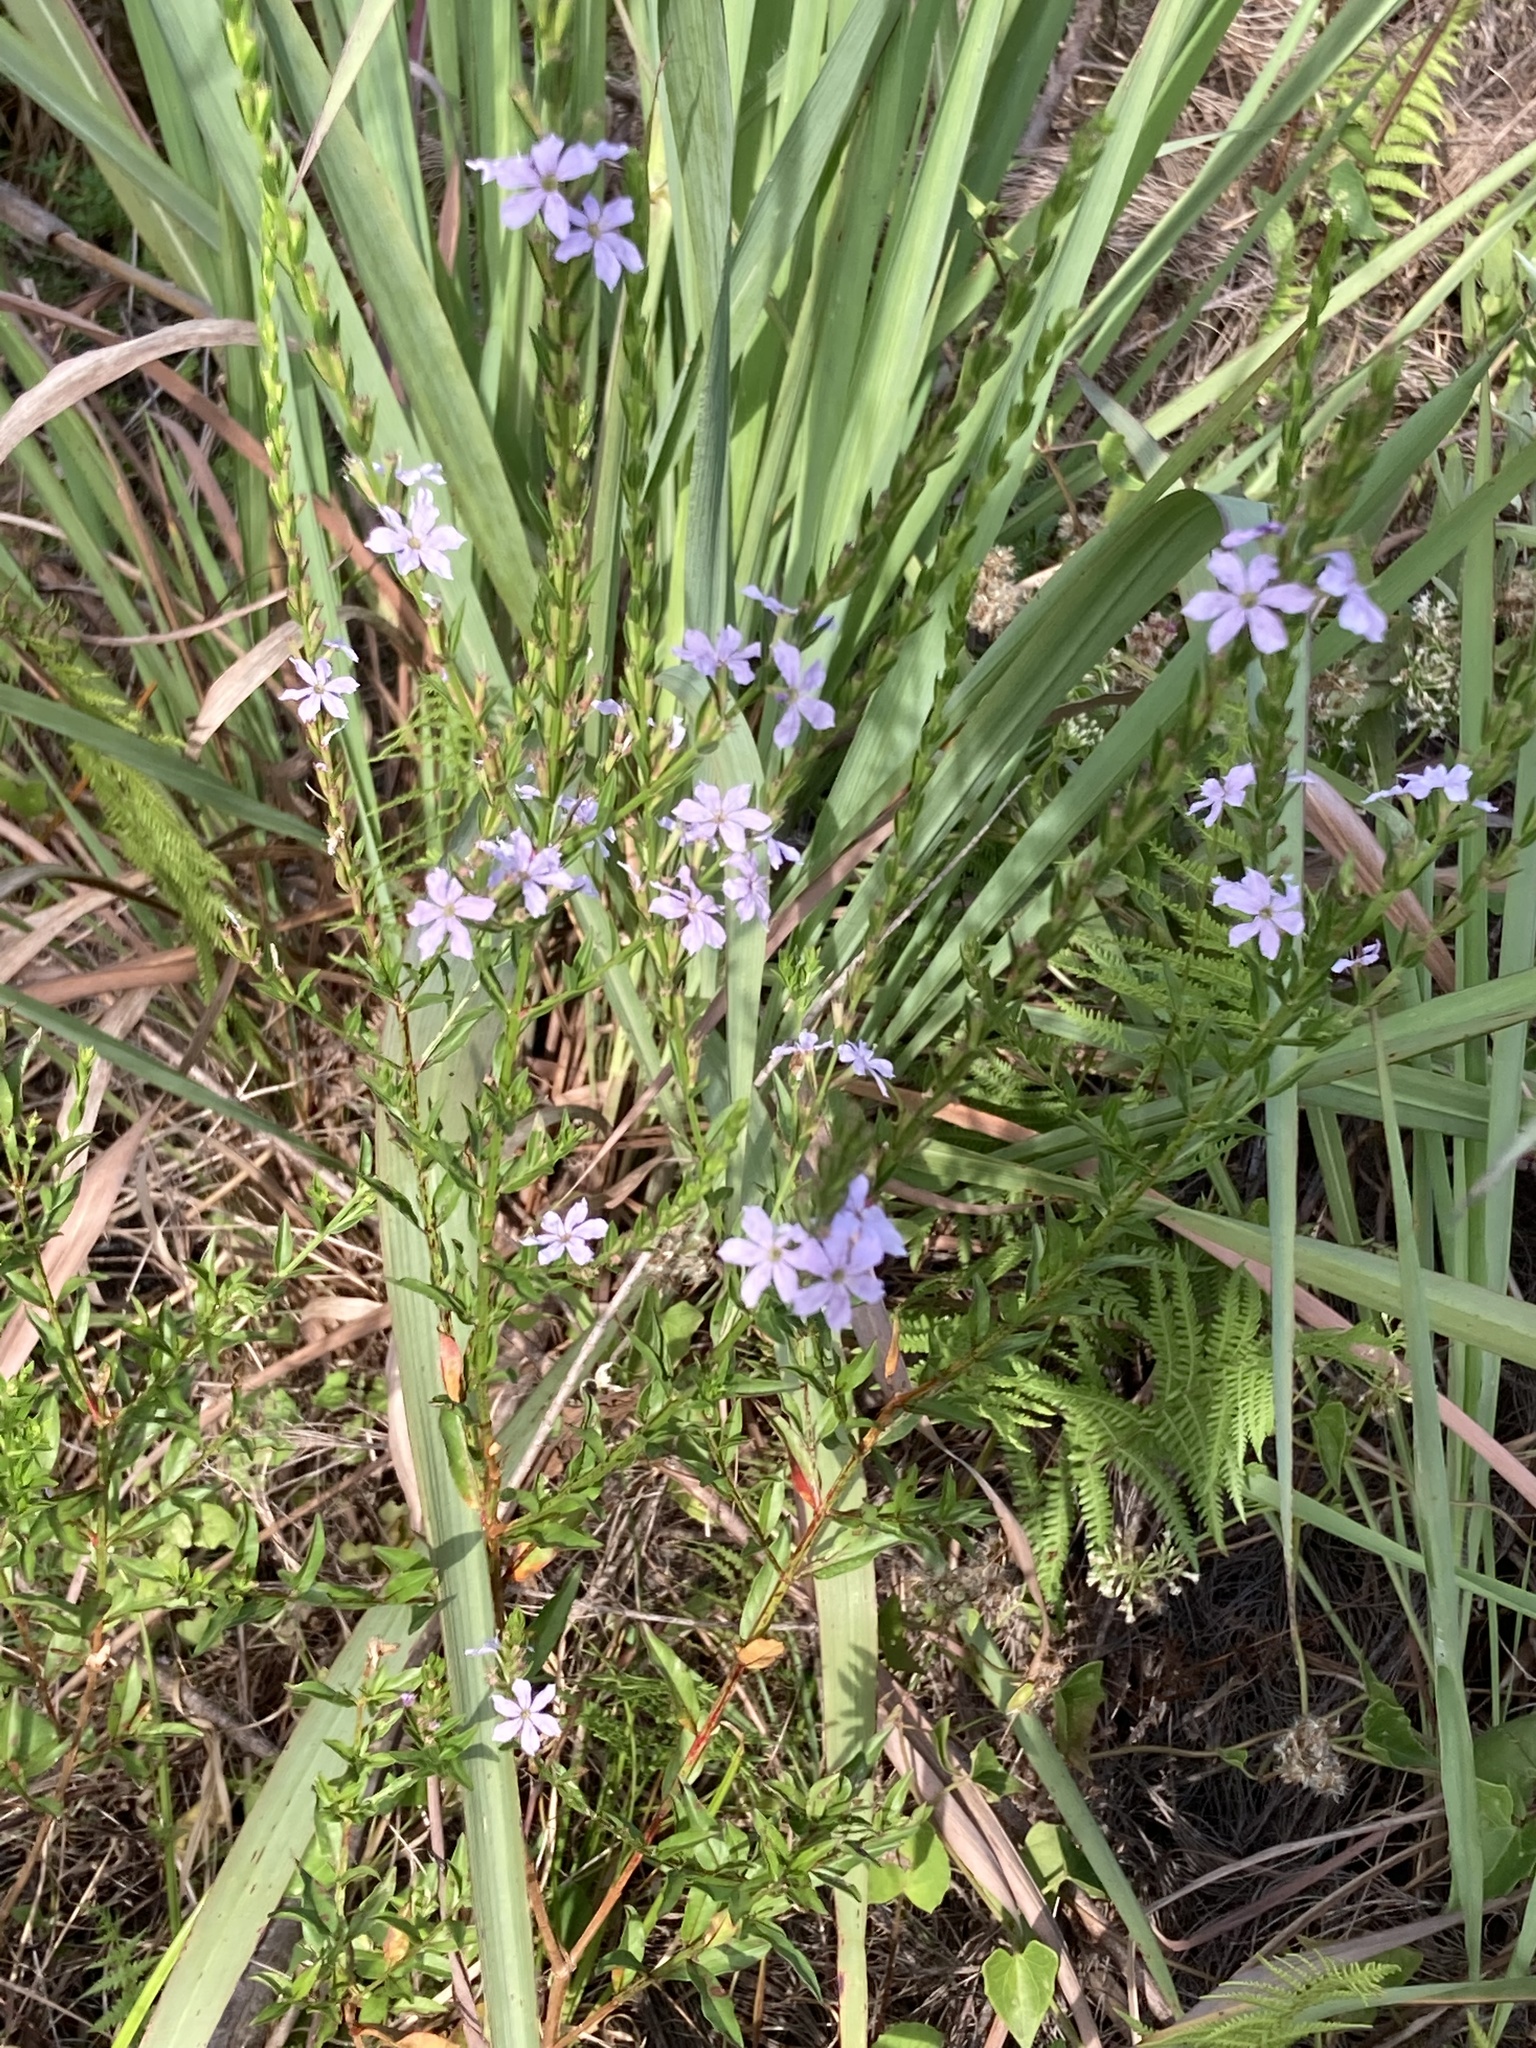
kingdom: Plantae
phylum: Tracheophyta
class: Magnoliopsida
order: Myrtales
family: Lythraceae
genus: Lythrum
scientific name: Lythrum alatum
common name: Winged loosestrife
